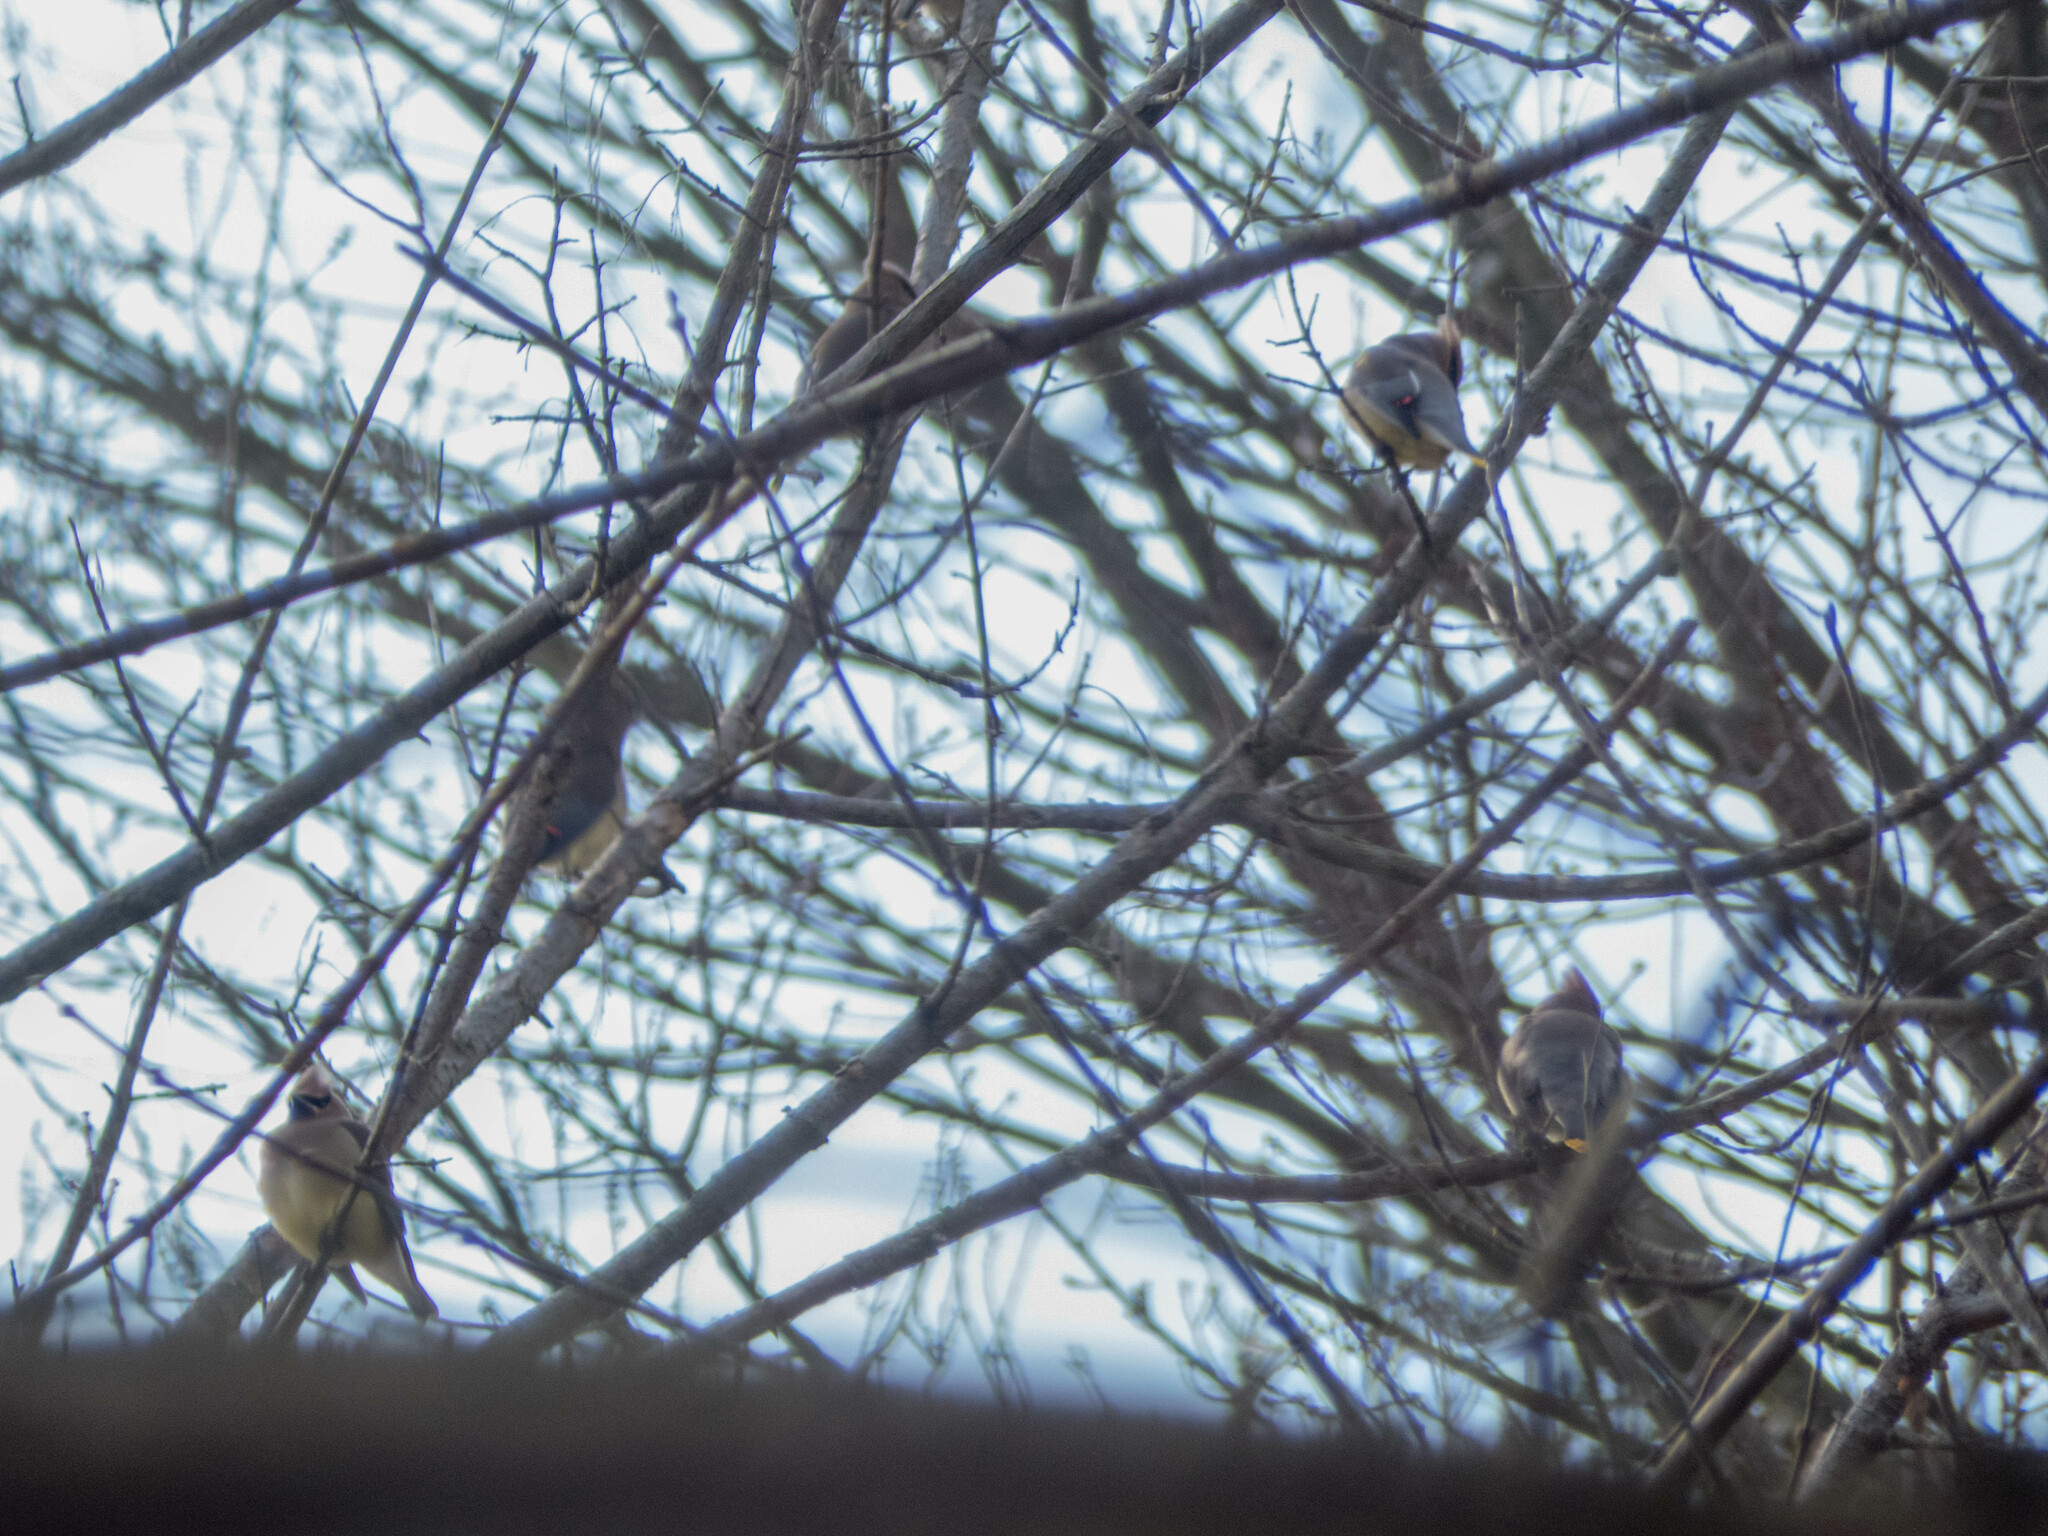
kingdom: Animalia
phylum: Chordata
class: Aves
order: Passeriformes
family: Bombycillidae
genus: Bombycilla
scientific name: Bombycilla cedrorum
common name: Cedar waxwing
